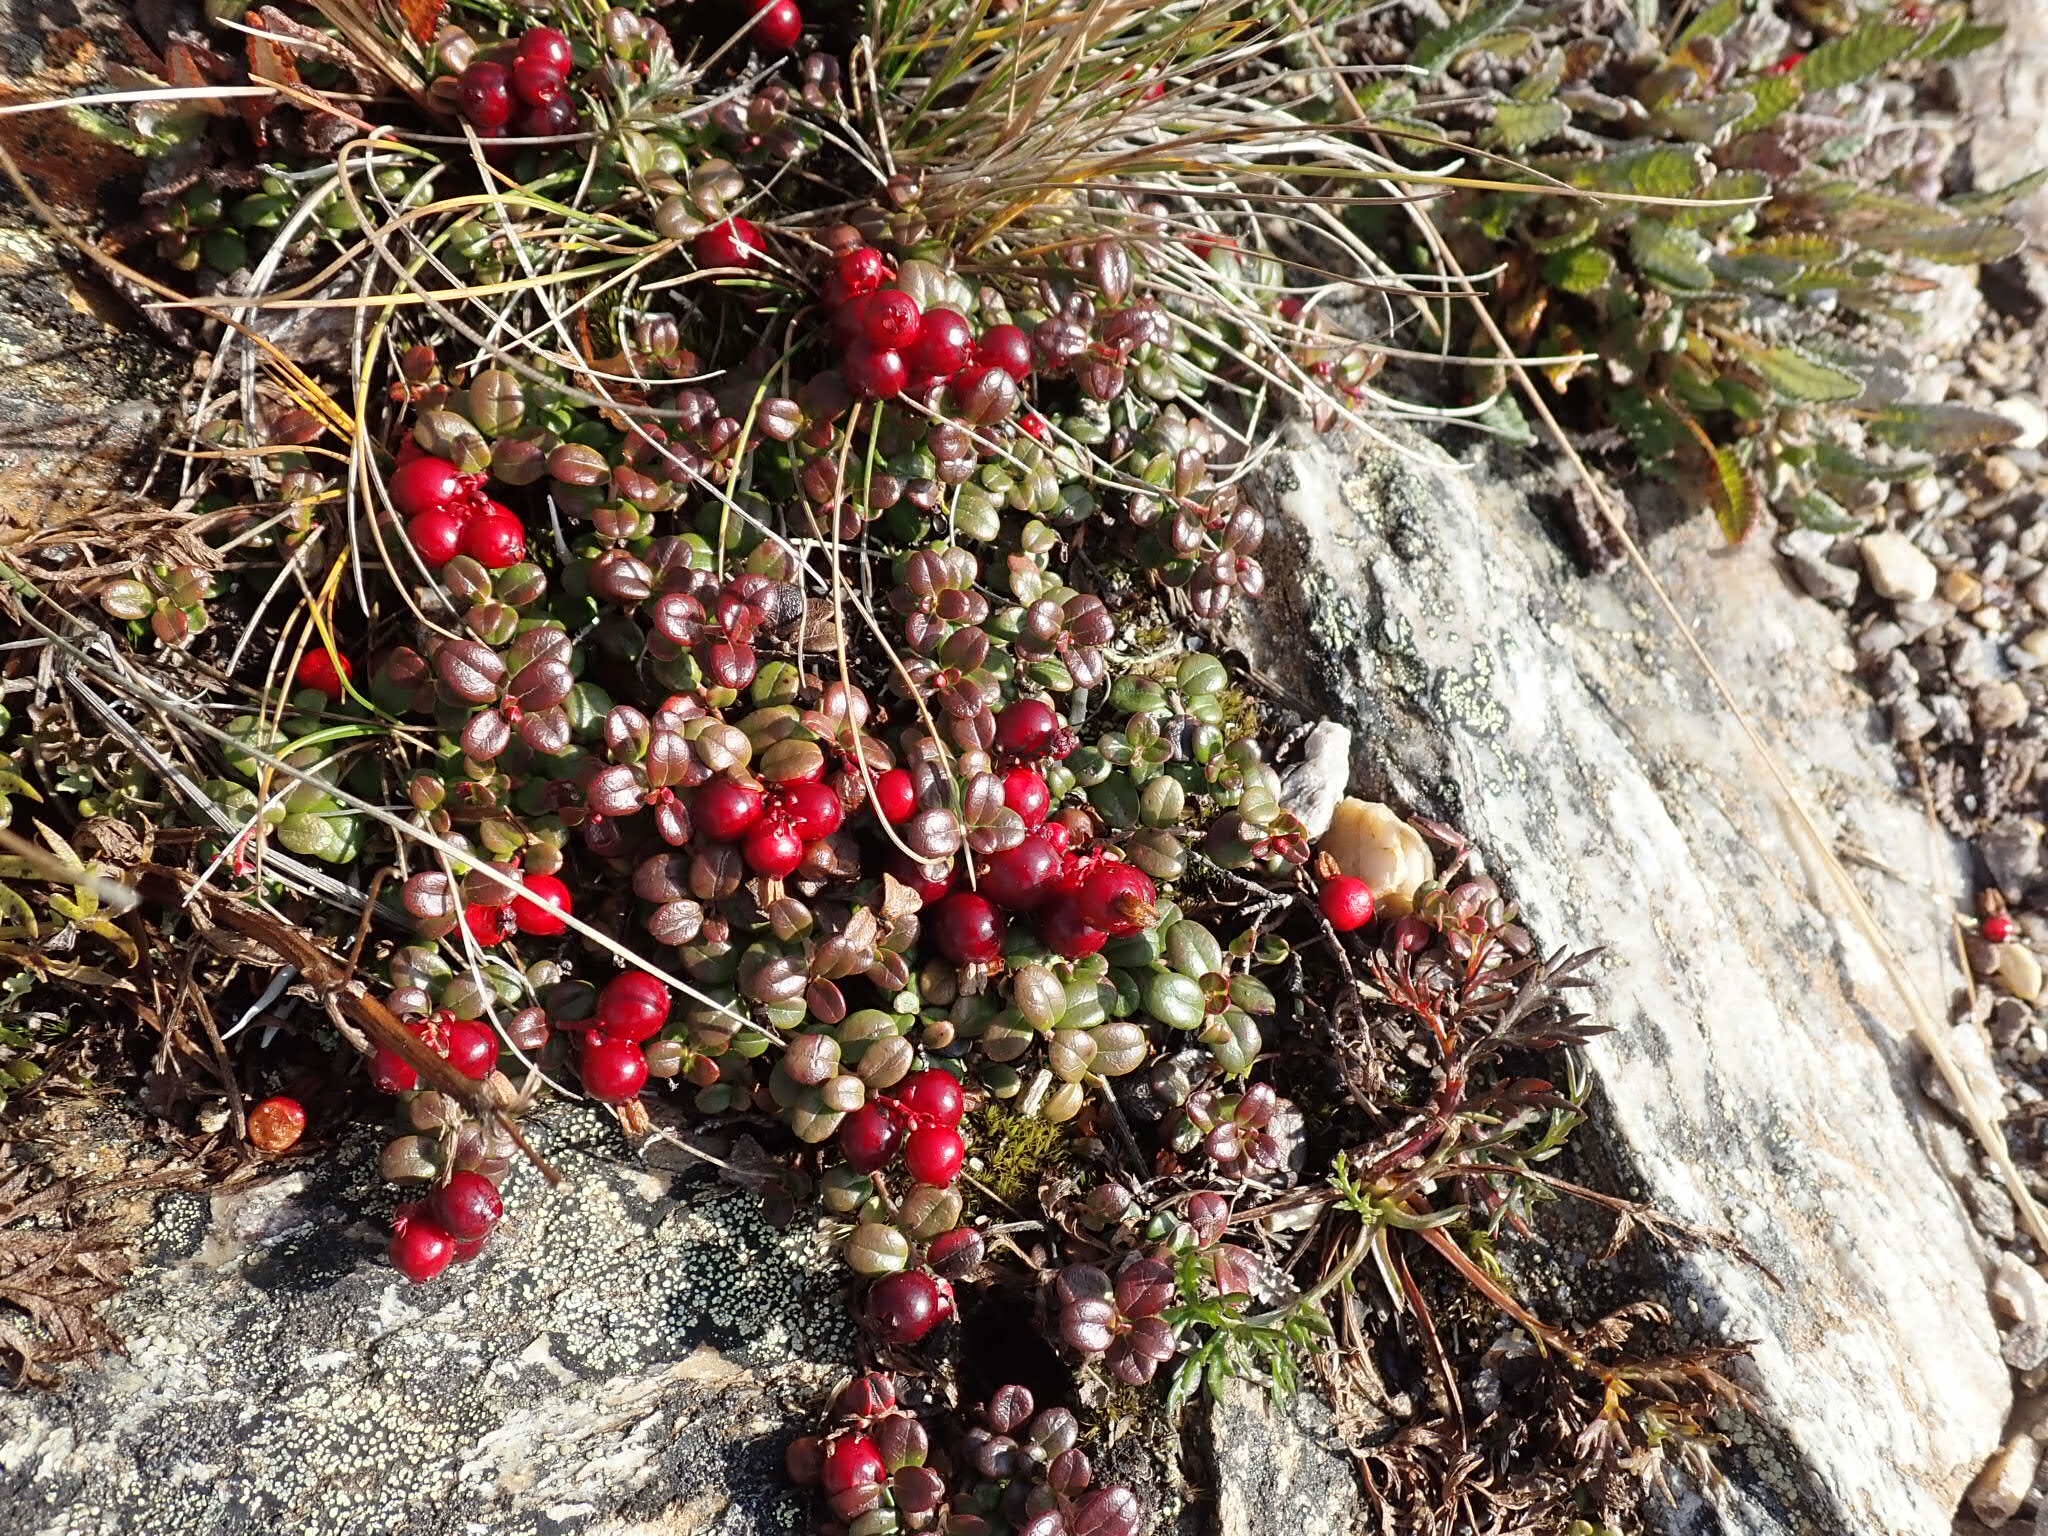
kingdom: Plantae
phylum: Tracheophyta
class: Magnoliopsida
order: Ericales
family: Ericaceae
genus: Vaccinium
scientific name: Vaccinium vitis-idaea
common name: Cowberry
